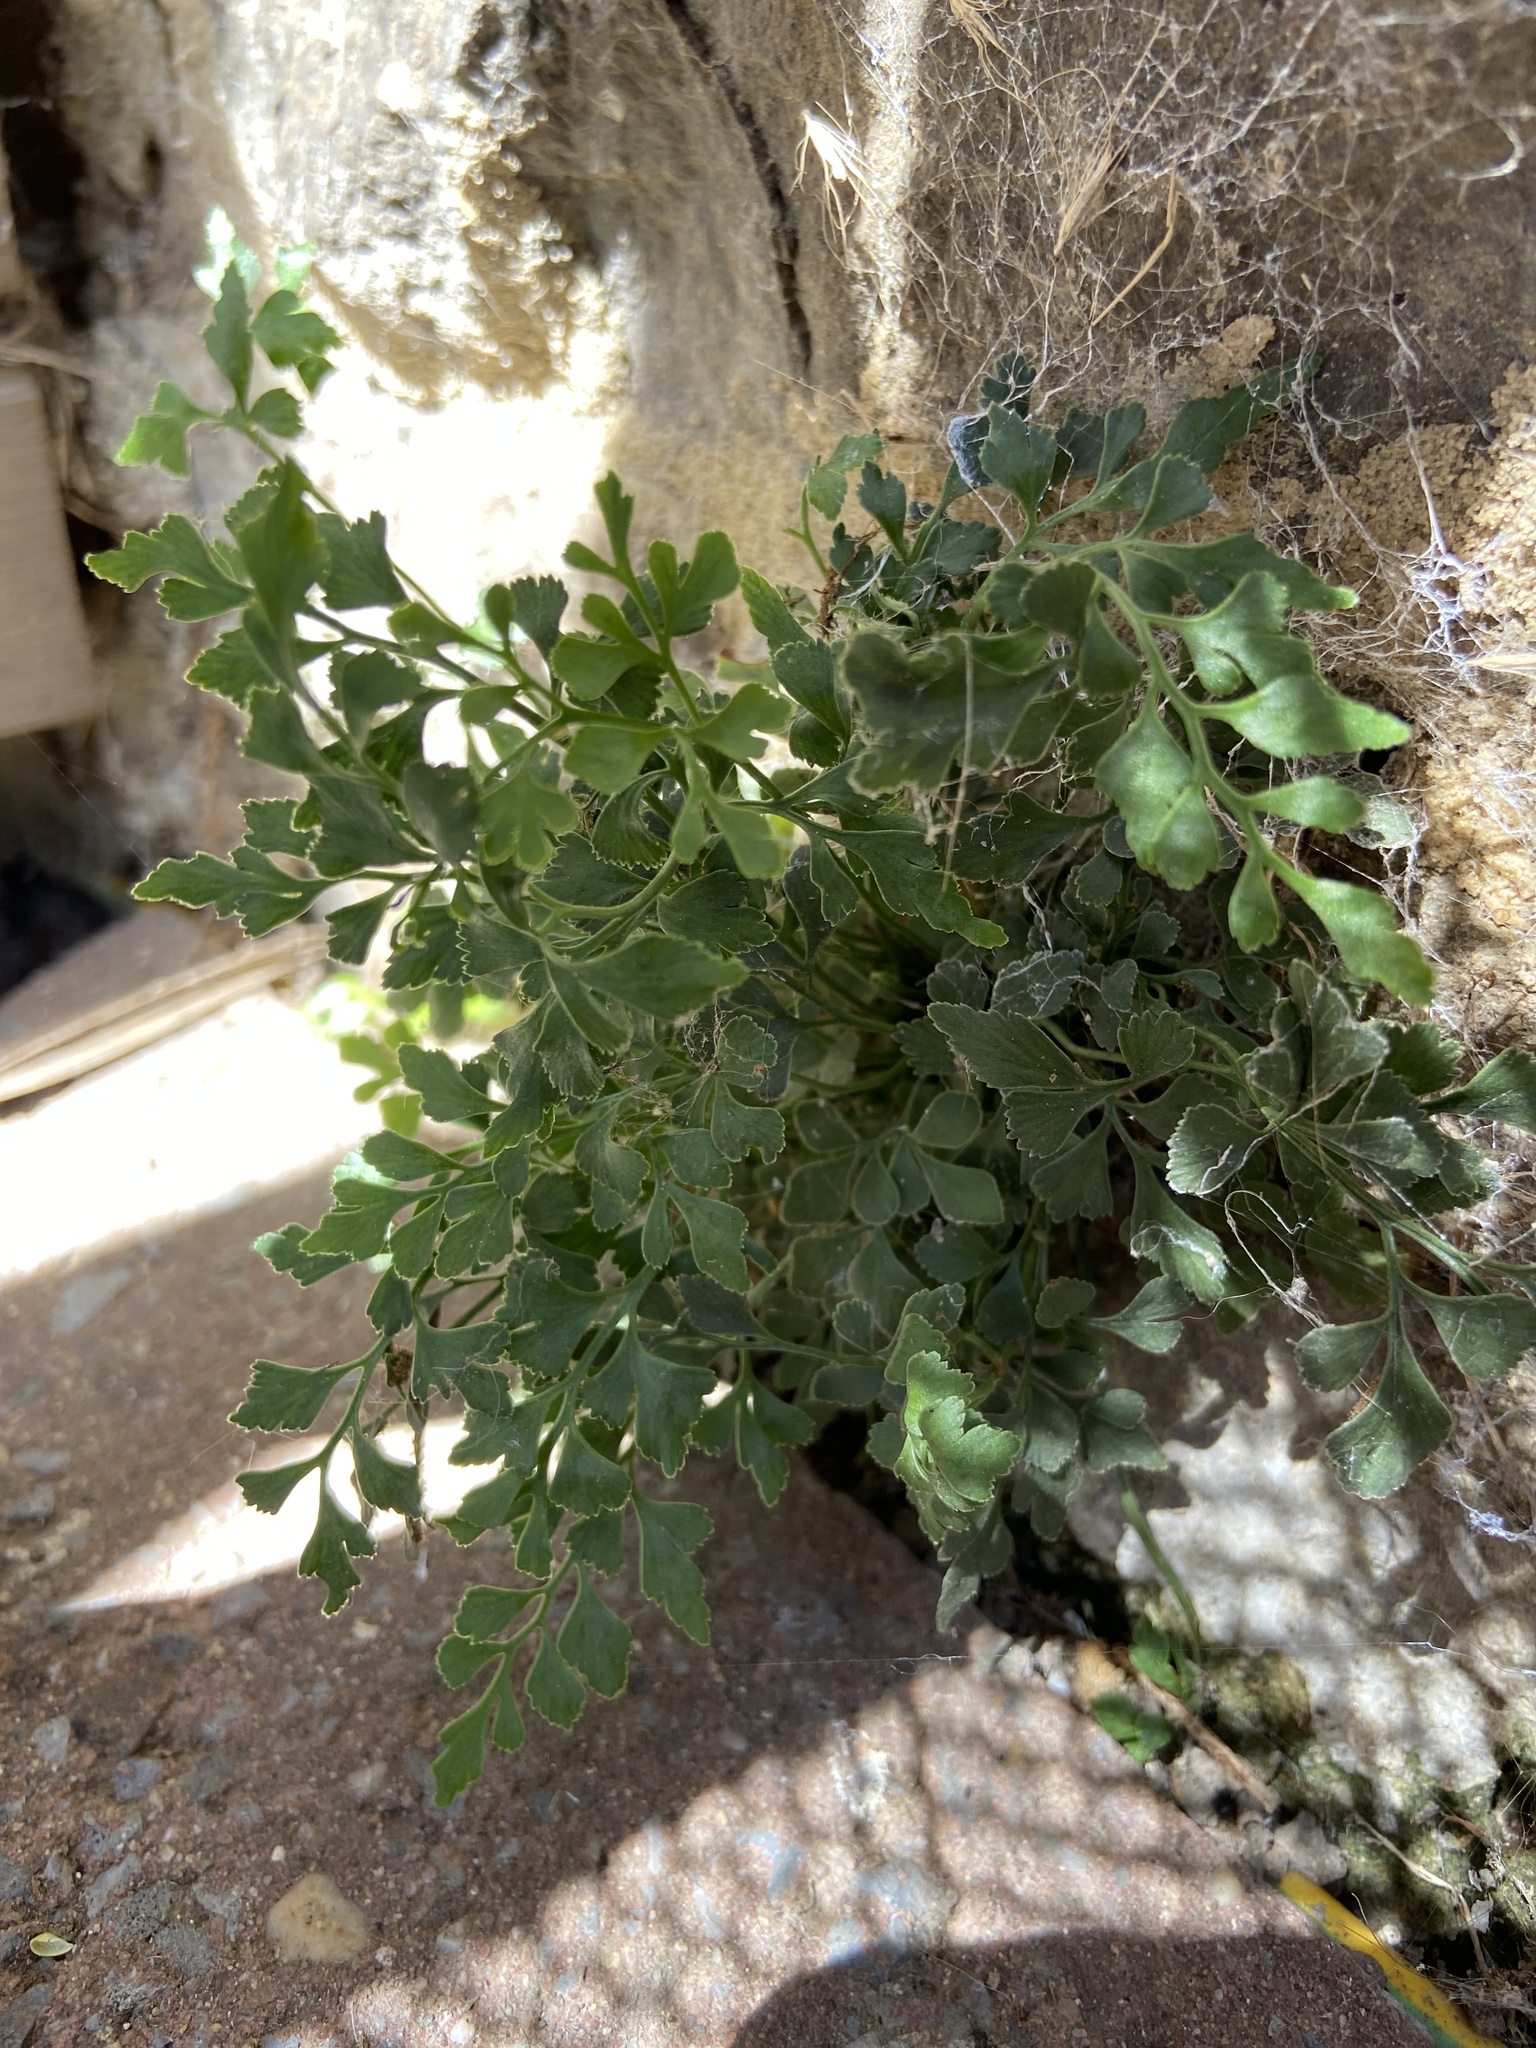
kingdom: Plantae
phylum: Tracheophyta
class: Polypodiopsida
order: Polypodiales
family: Aspleniaceae
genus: Asplenium
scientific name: Asplenium ruta-muraria
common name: Wall-rue
